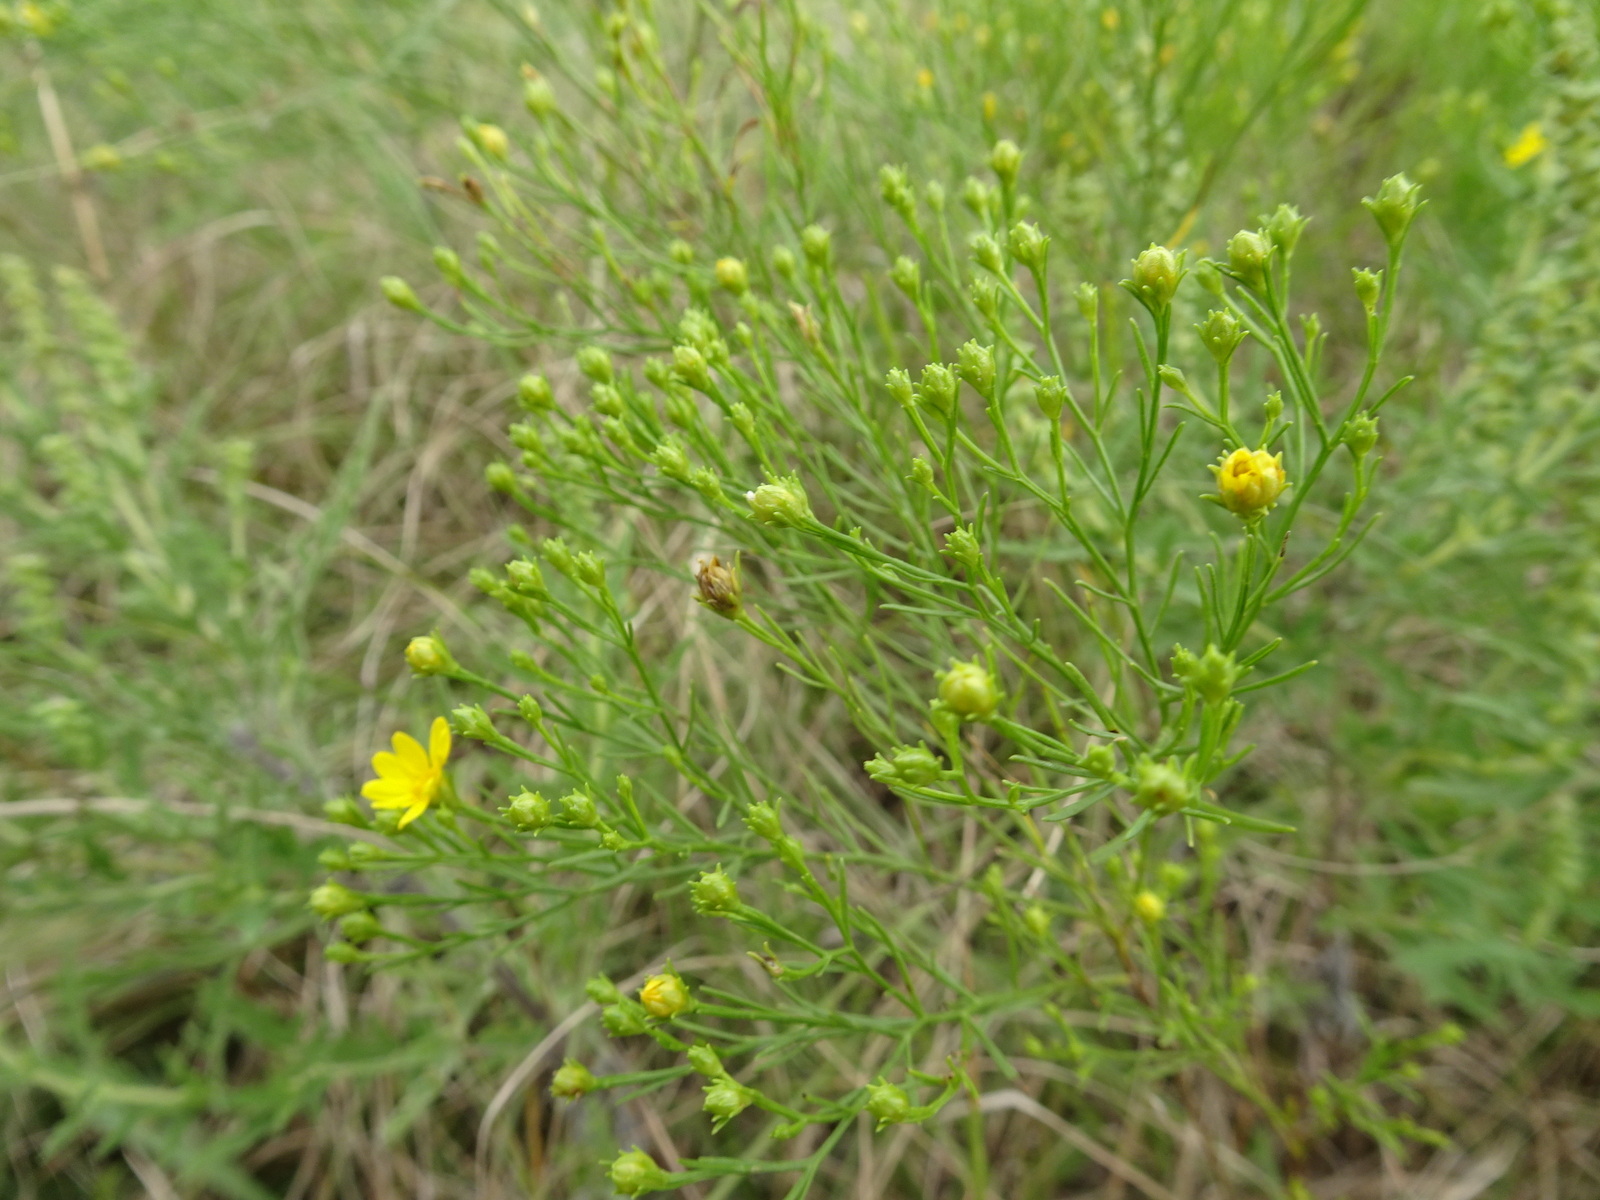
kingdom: Plantae
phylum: Tracheophyta
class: Magnoliopsida
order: Asterales
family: Asteraceae
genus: Amphiachyris
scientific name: Amphiachyris dracunculoides
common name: Broomweed
